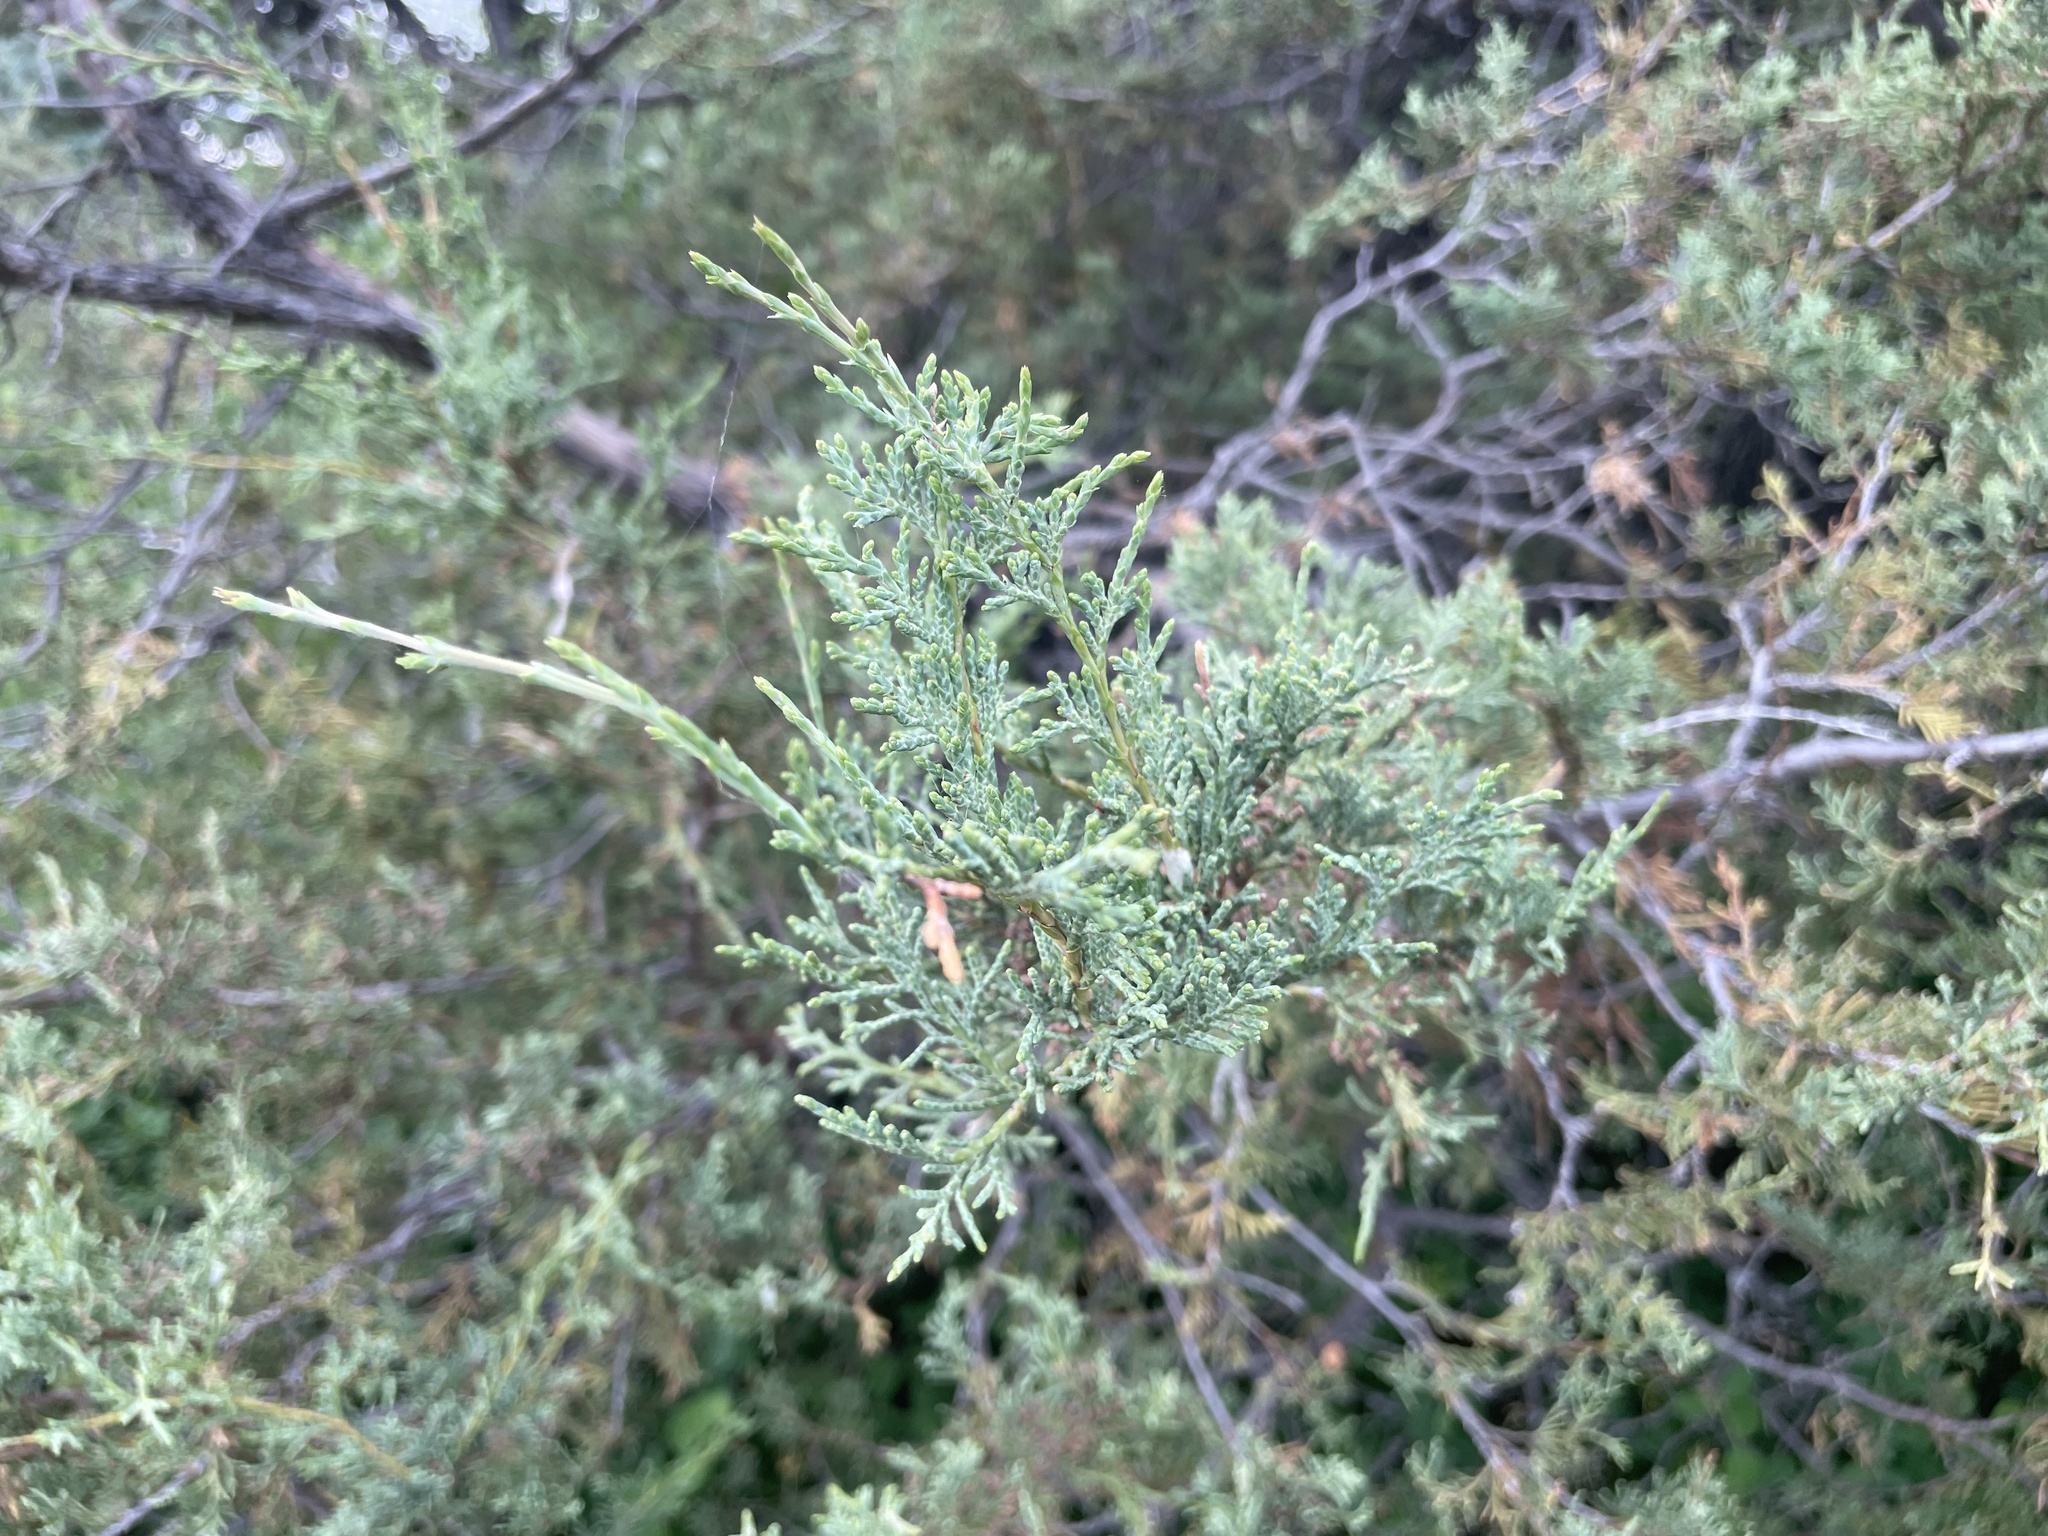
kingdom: Plantae
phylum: Tracheophyta
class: Pinopsida
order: Pinales
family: Cupressaceae
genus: Juniperus
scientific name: Juniperus scopulorum
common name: Rocky mountain juniper
